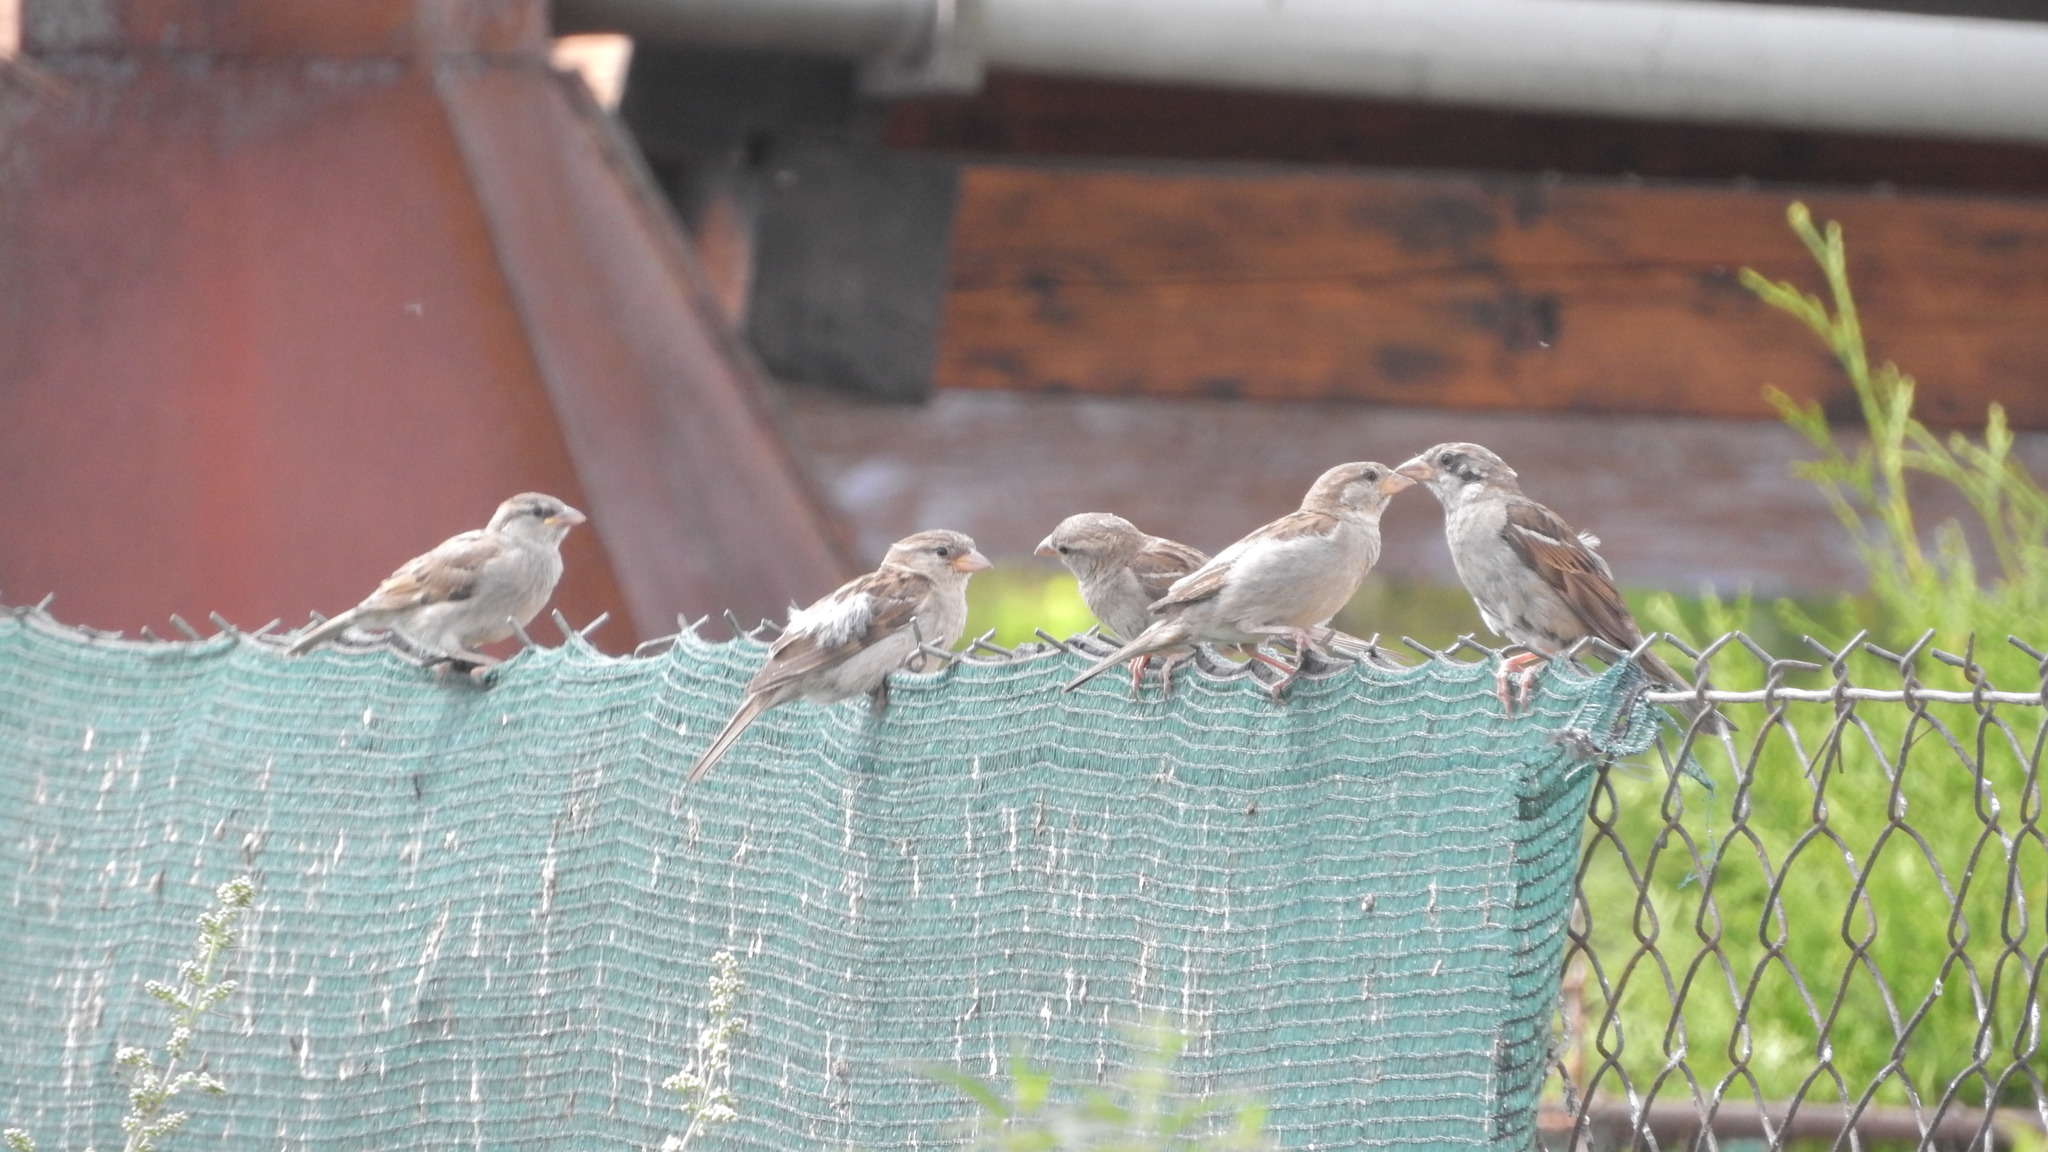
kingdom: Animalia
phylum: Chordata
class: Aves
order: Passeriformes
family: Passeridae
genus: Passer
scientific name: Passer domesticus
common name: House sparrow
